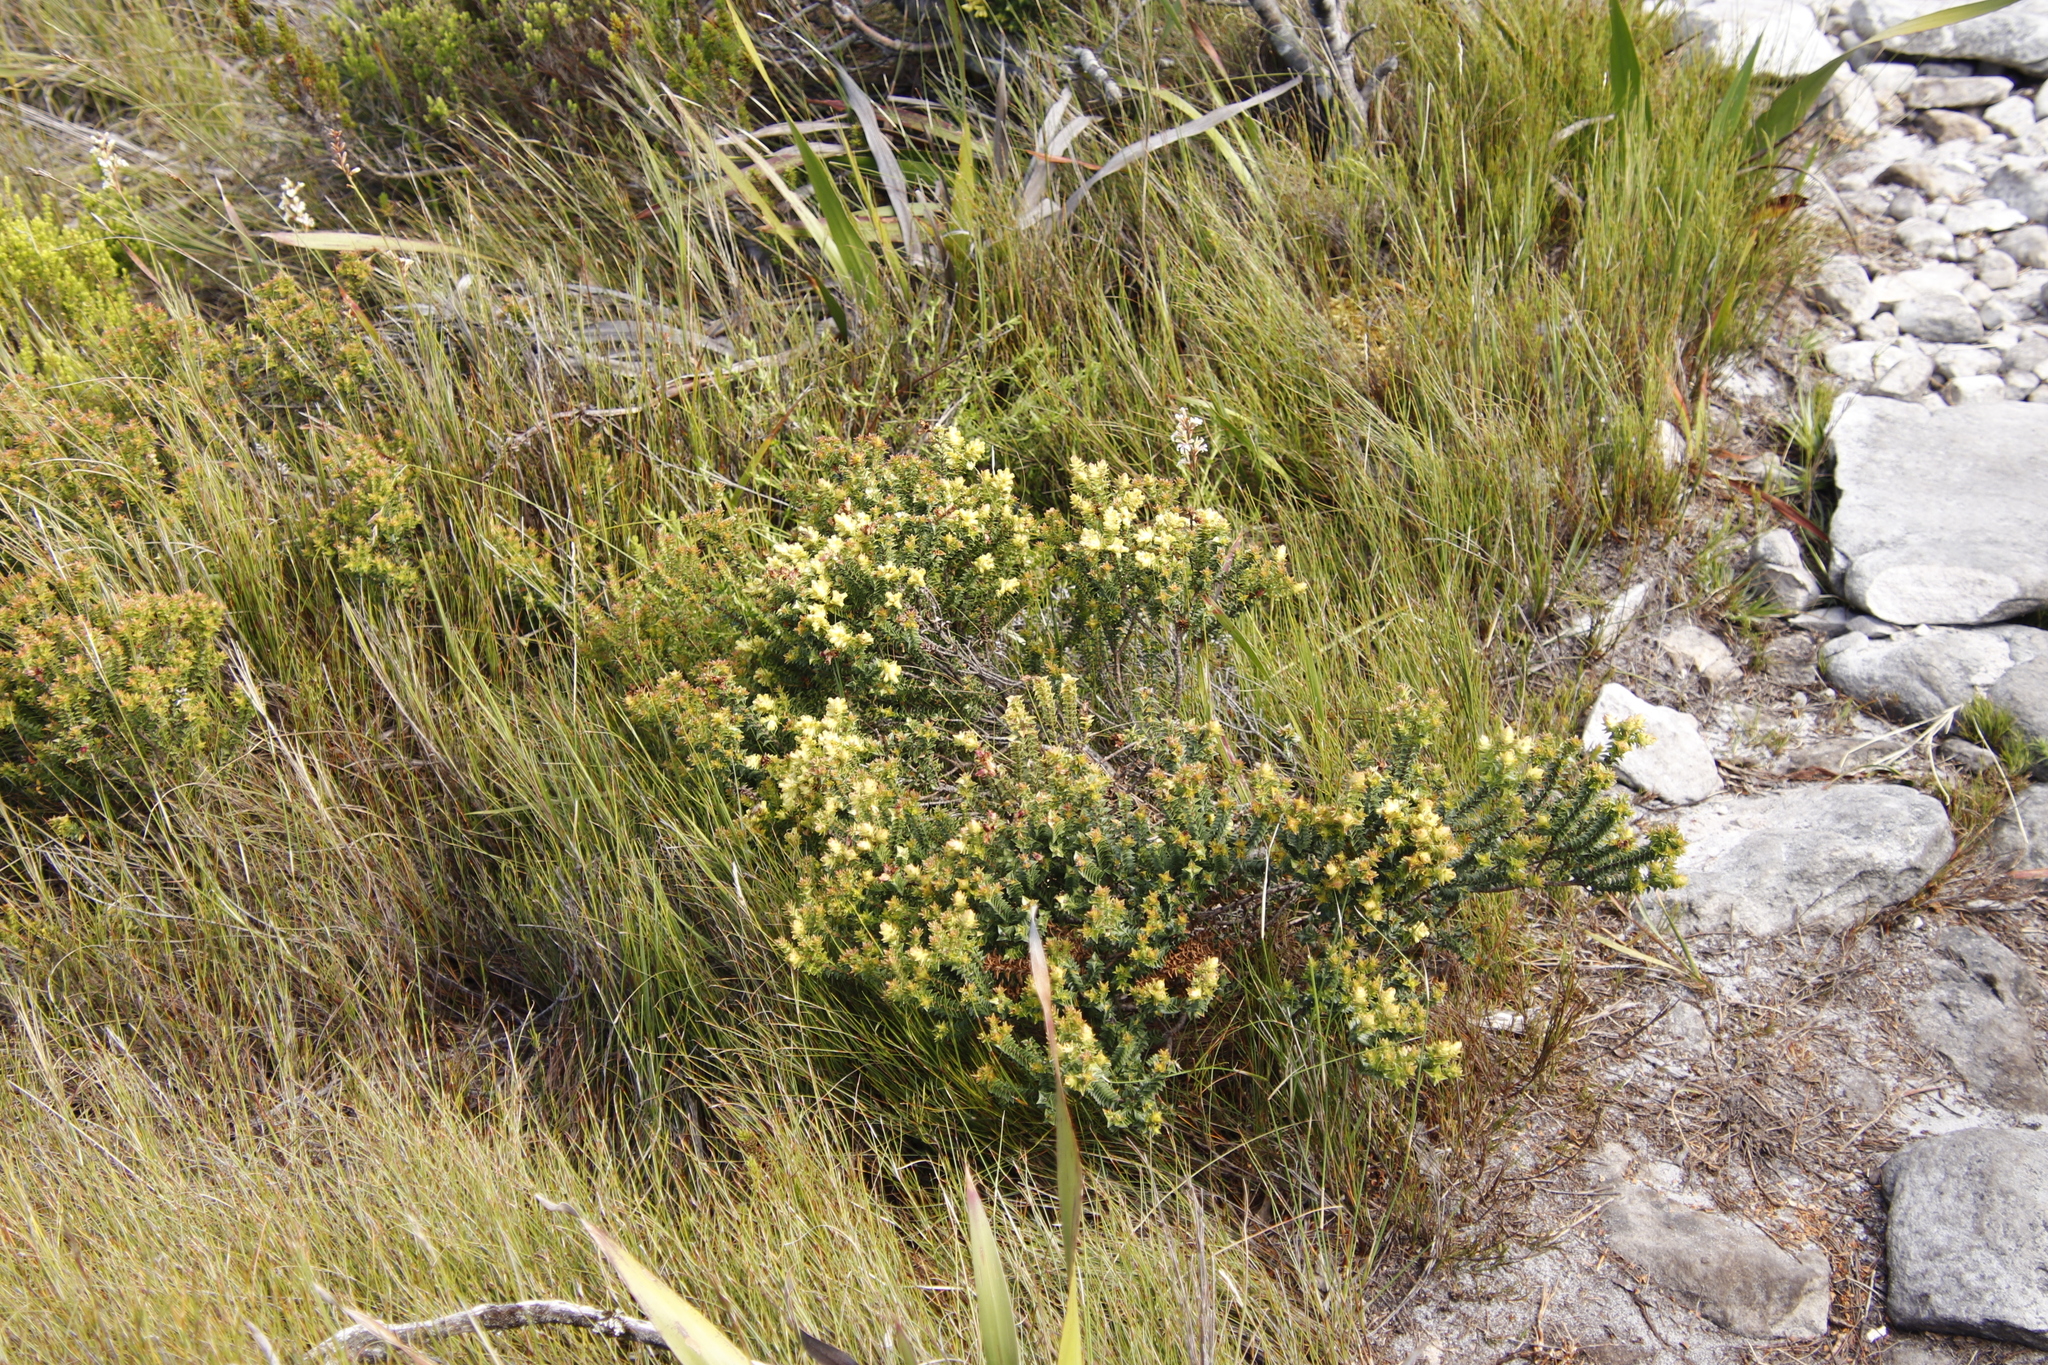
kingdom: Plantae
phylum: Tracheophyta
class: Magnoliopsida
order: Myrtales
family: Penaeaceae
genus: Penaea
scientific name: Penaea mucronata
